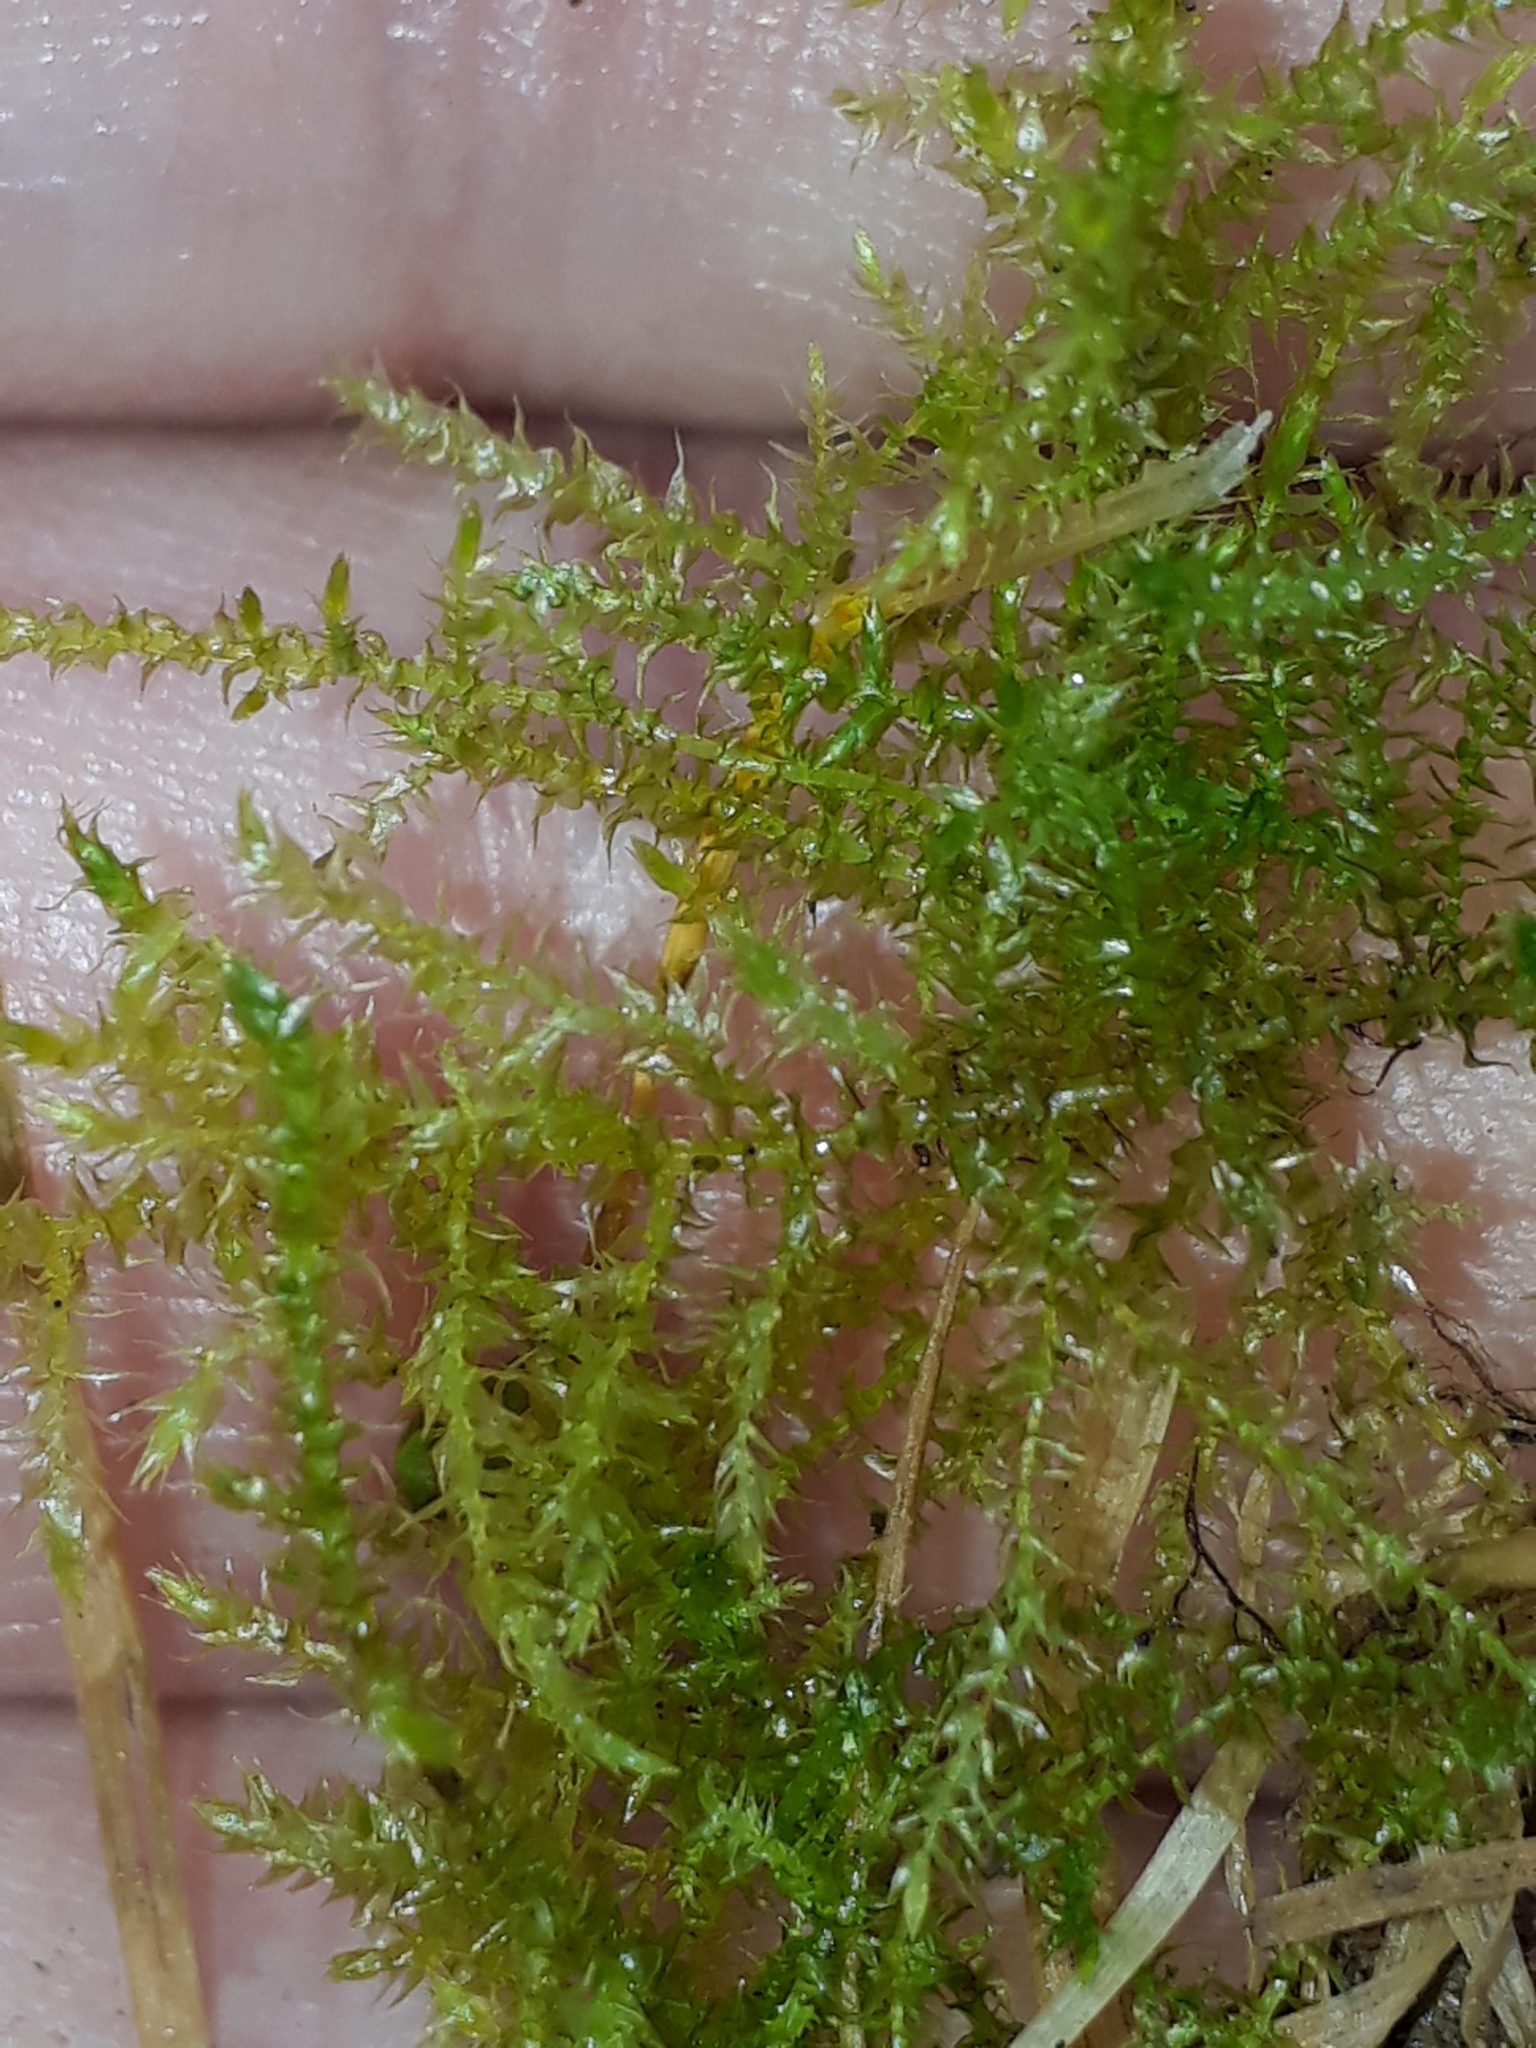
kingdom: Plantae
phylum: Bryophyta
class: Bryopsida
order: Hypnales
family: Brachytheciaceae
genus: Kindbergia
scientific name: Kindbergia praelonga
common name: Slender beaked moss
